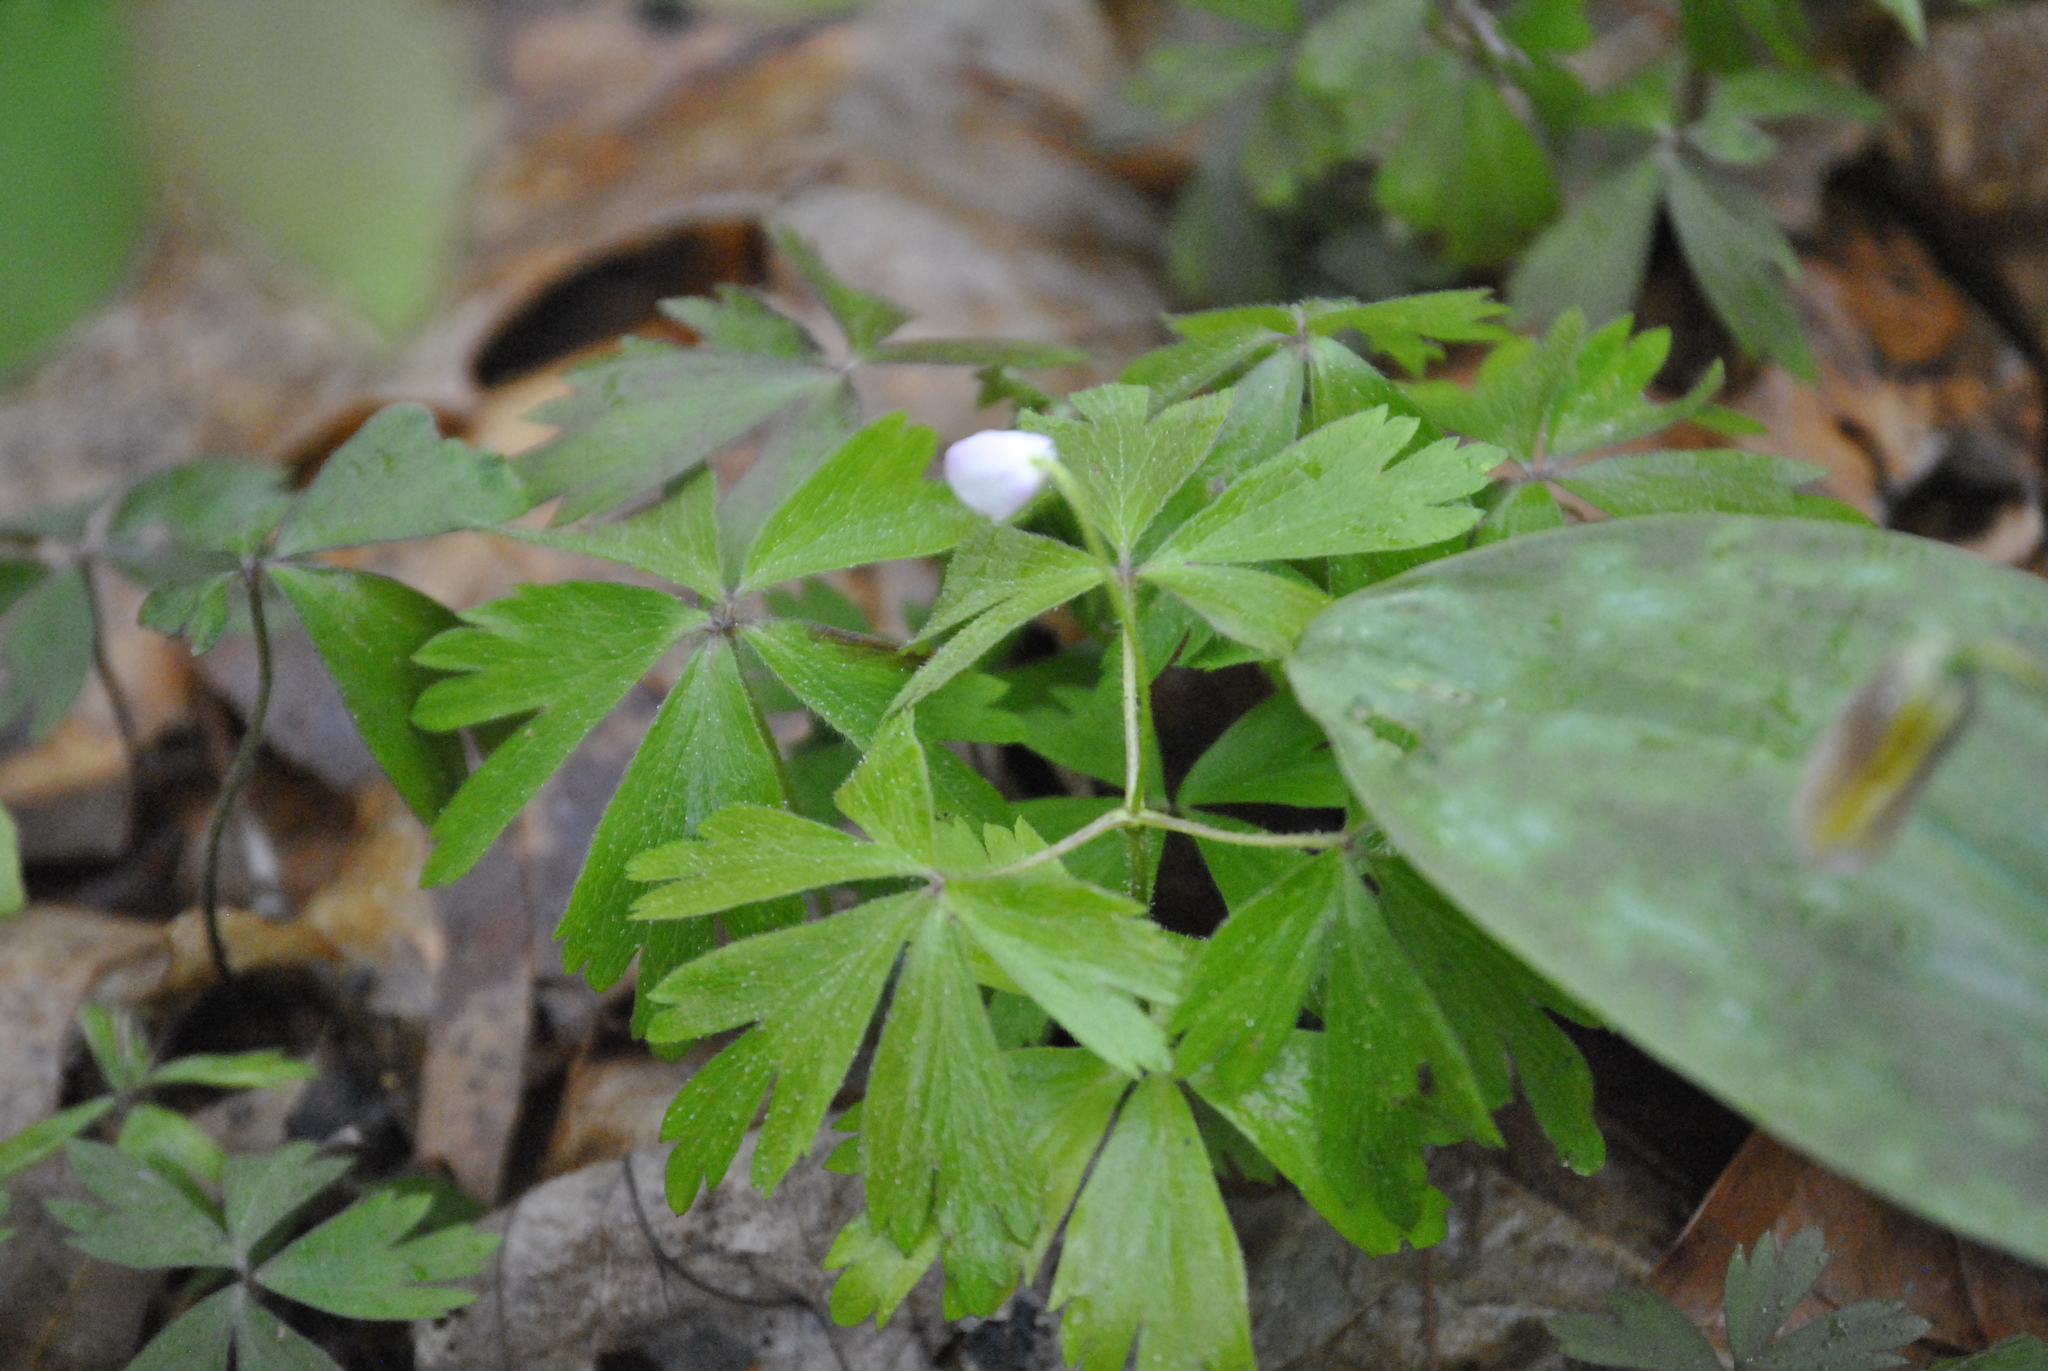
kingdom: Plantae
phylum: Tracheophyta
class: Magnoliopsida
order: Ranunculales
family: Ranunculaceae
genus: Anemone
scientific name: Anemone quinquefolia
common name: Wood anemone
